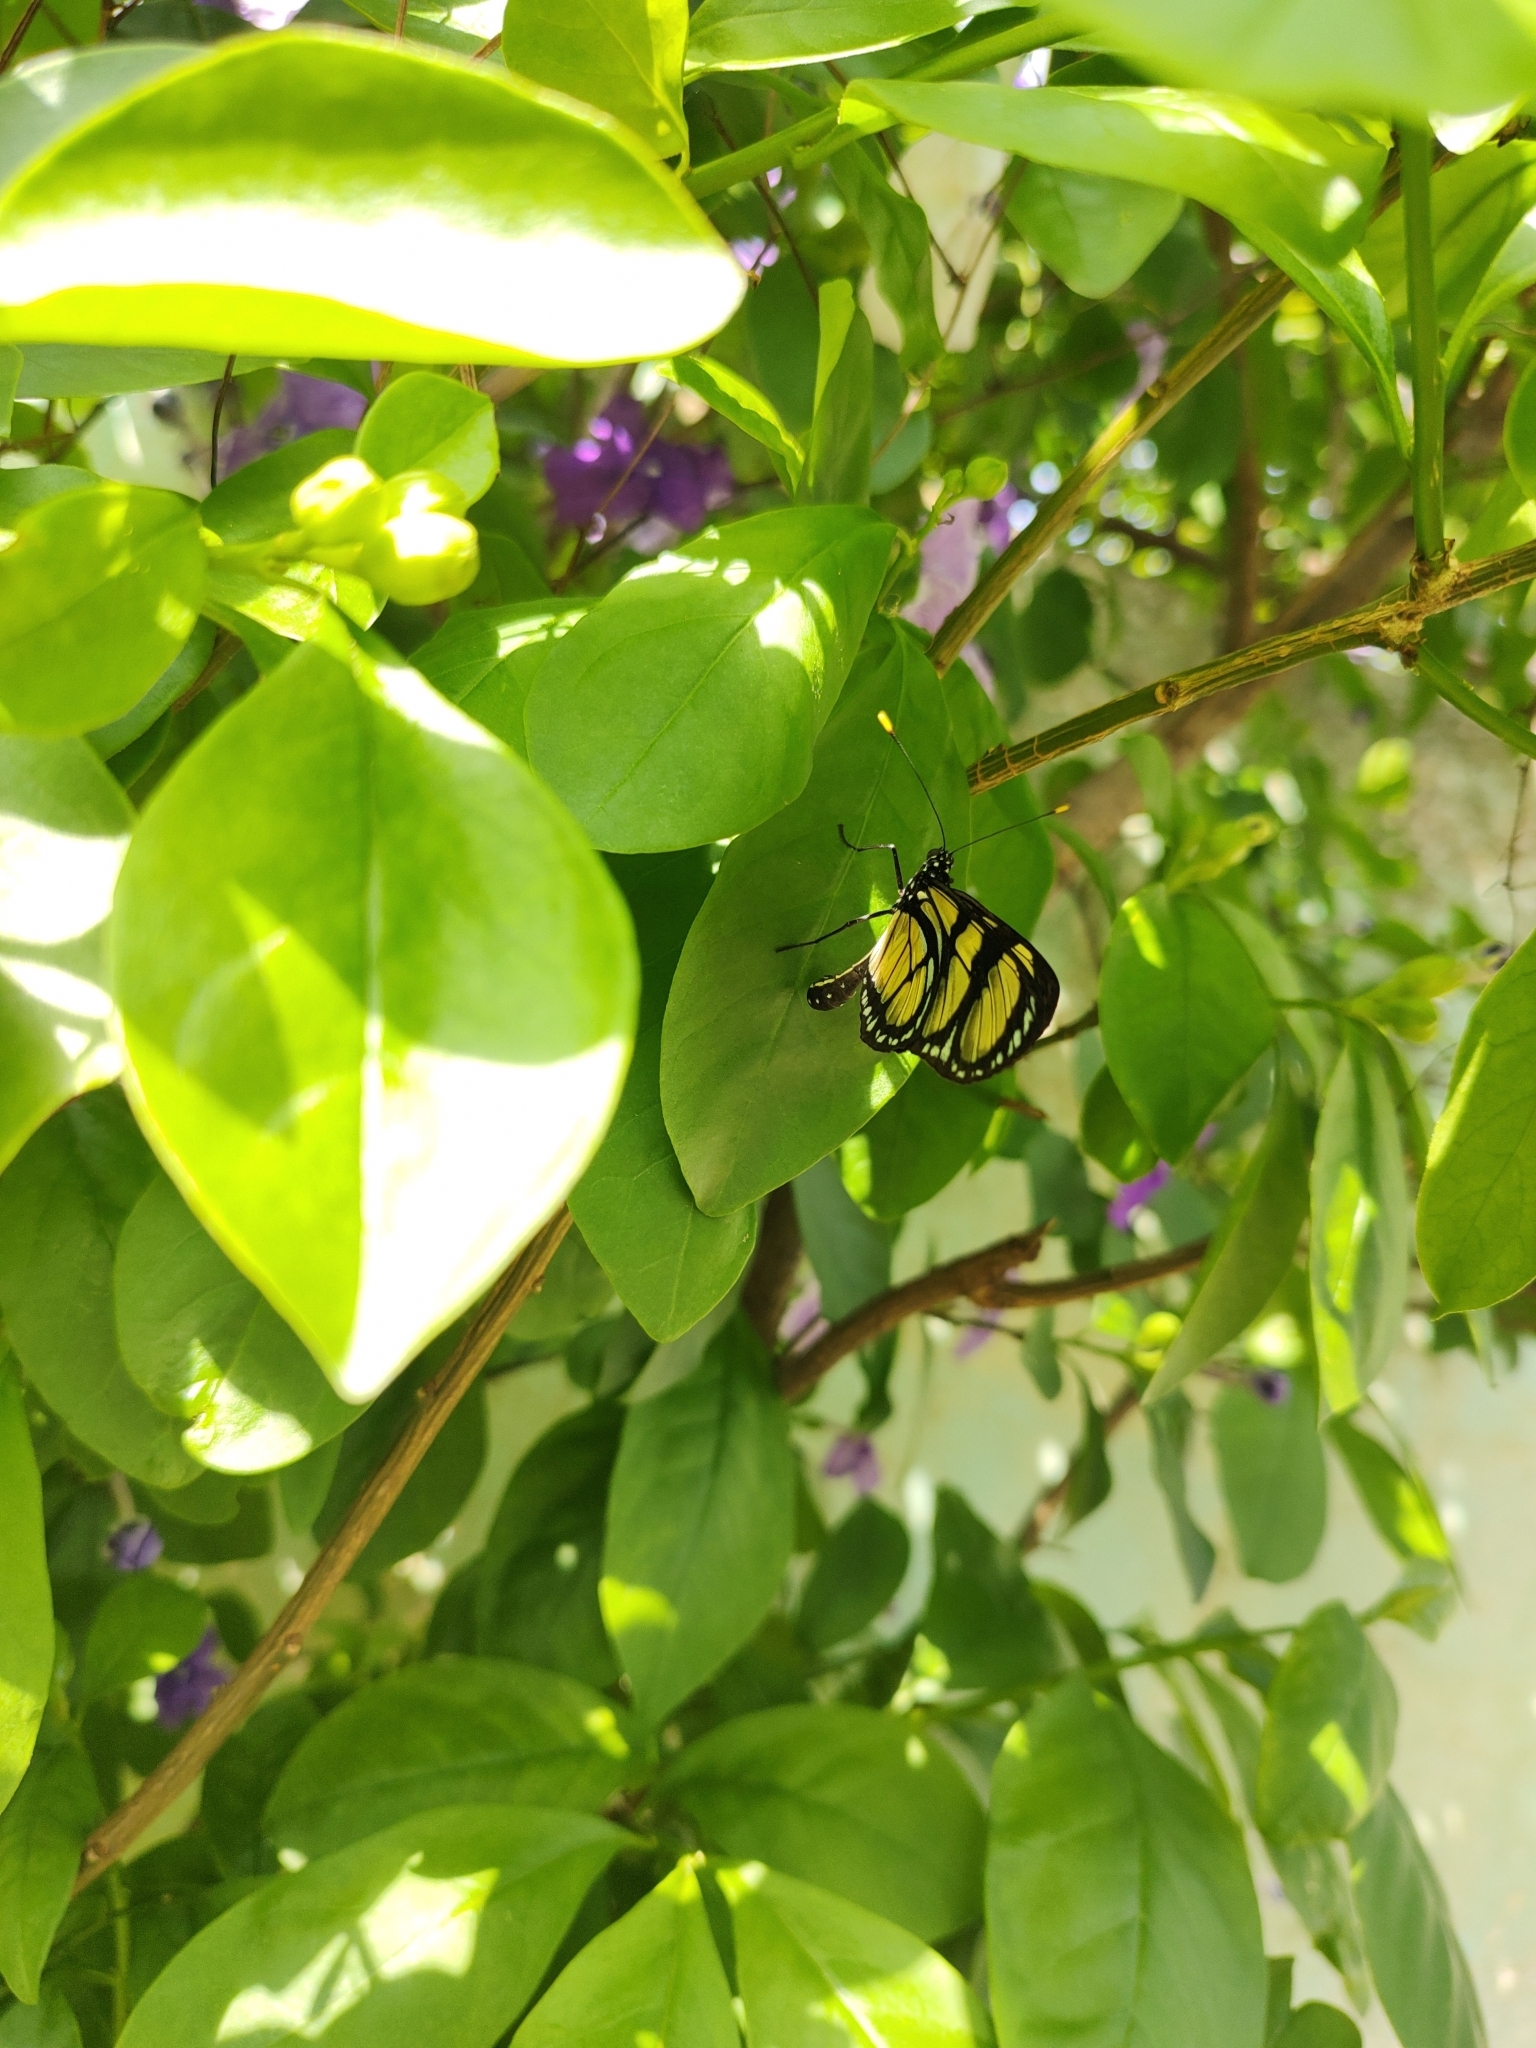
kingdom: Animalia
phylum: Arthropoda
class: Insecta
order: Lepidoptera
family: Nymphalidae
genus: Methona
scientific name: Methona themisto
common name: Themisto amberwing
